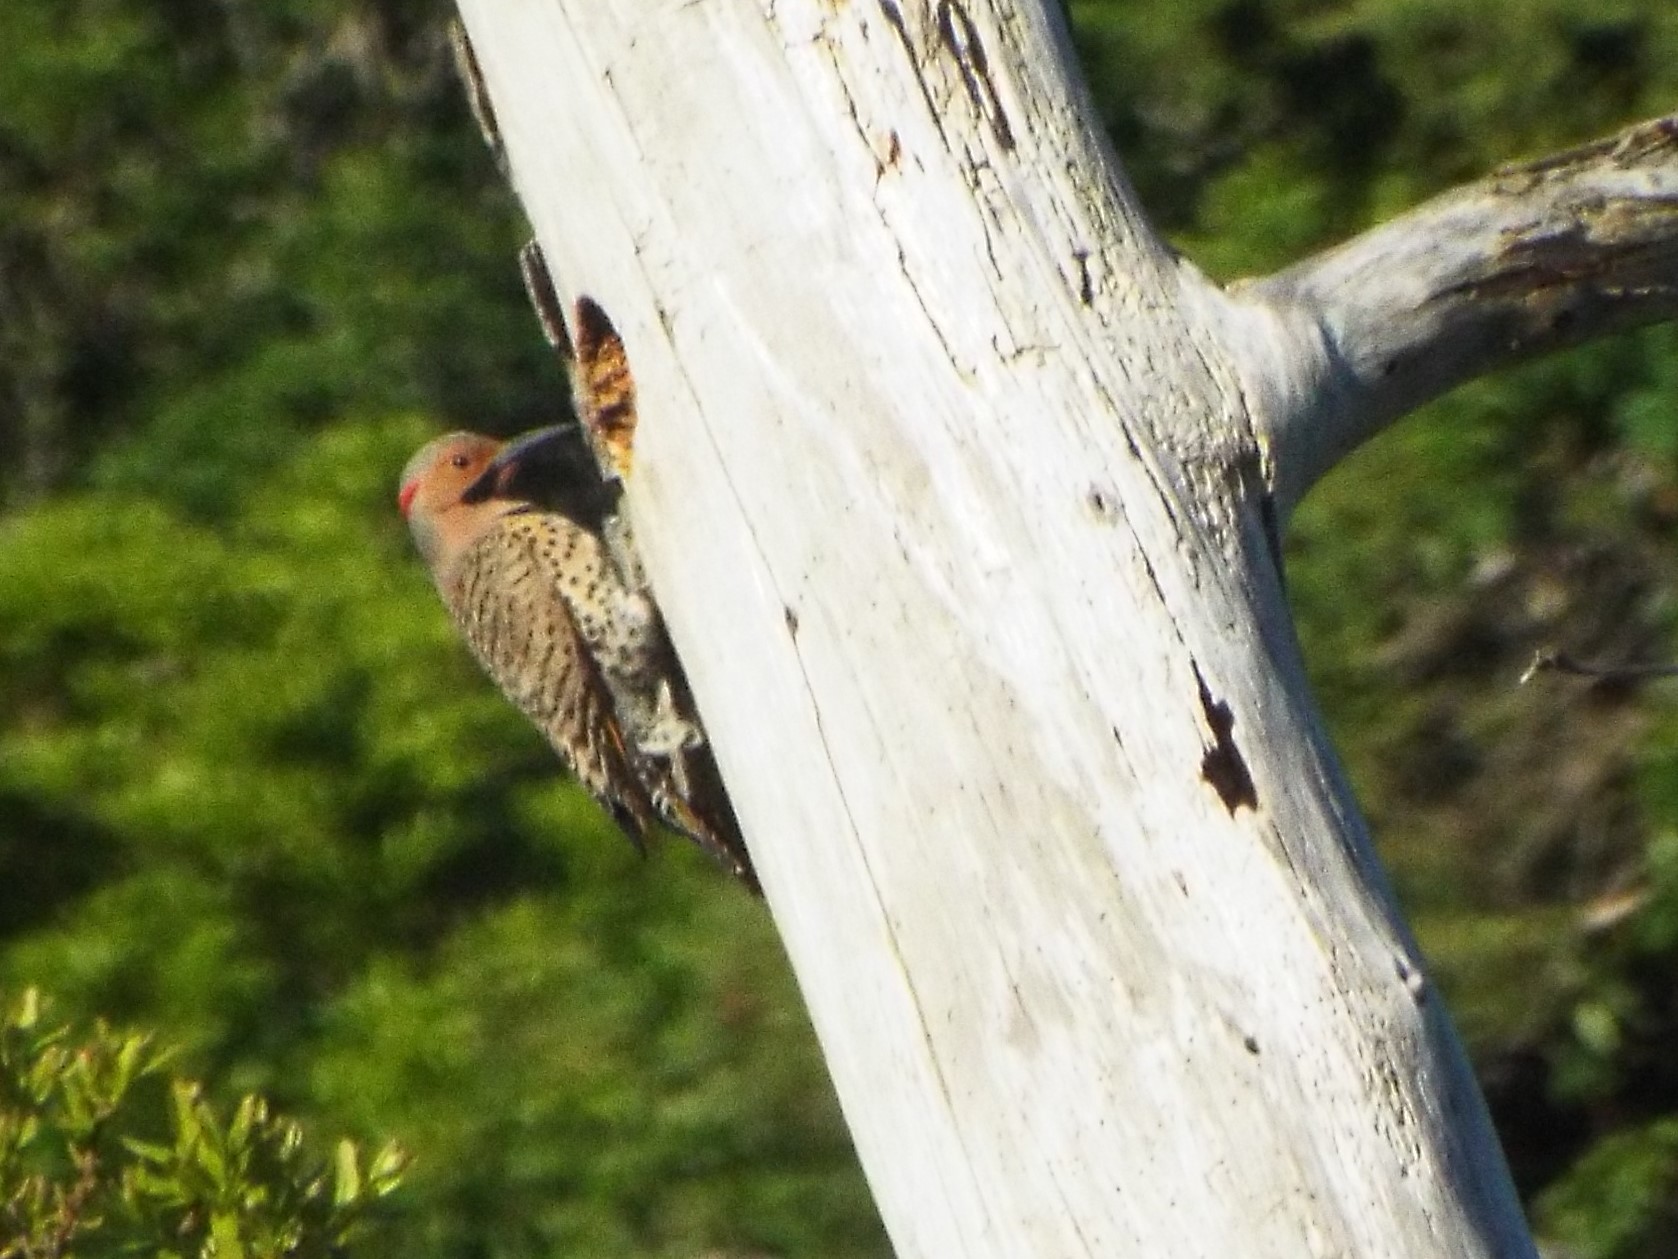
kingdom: Animalia
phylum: Chordata
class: Aves
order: Piciformes
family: Picidae
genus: Colaptes
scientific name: Colaptes auratus
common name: Northern flicker
